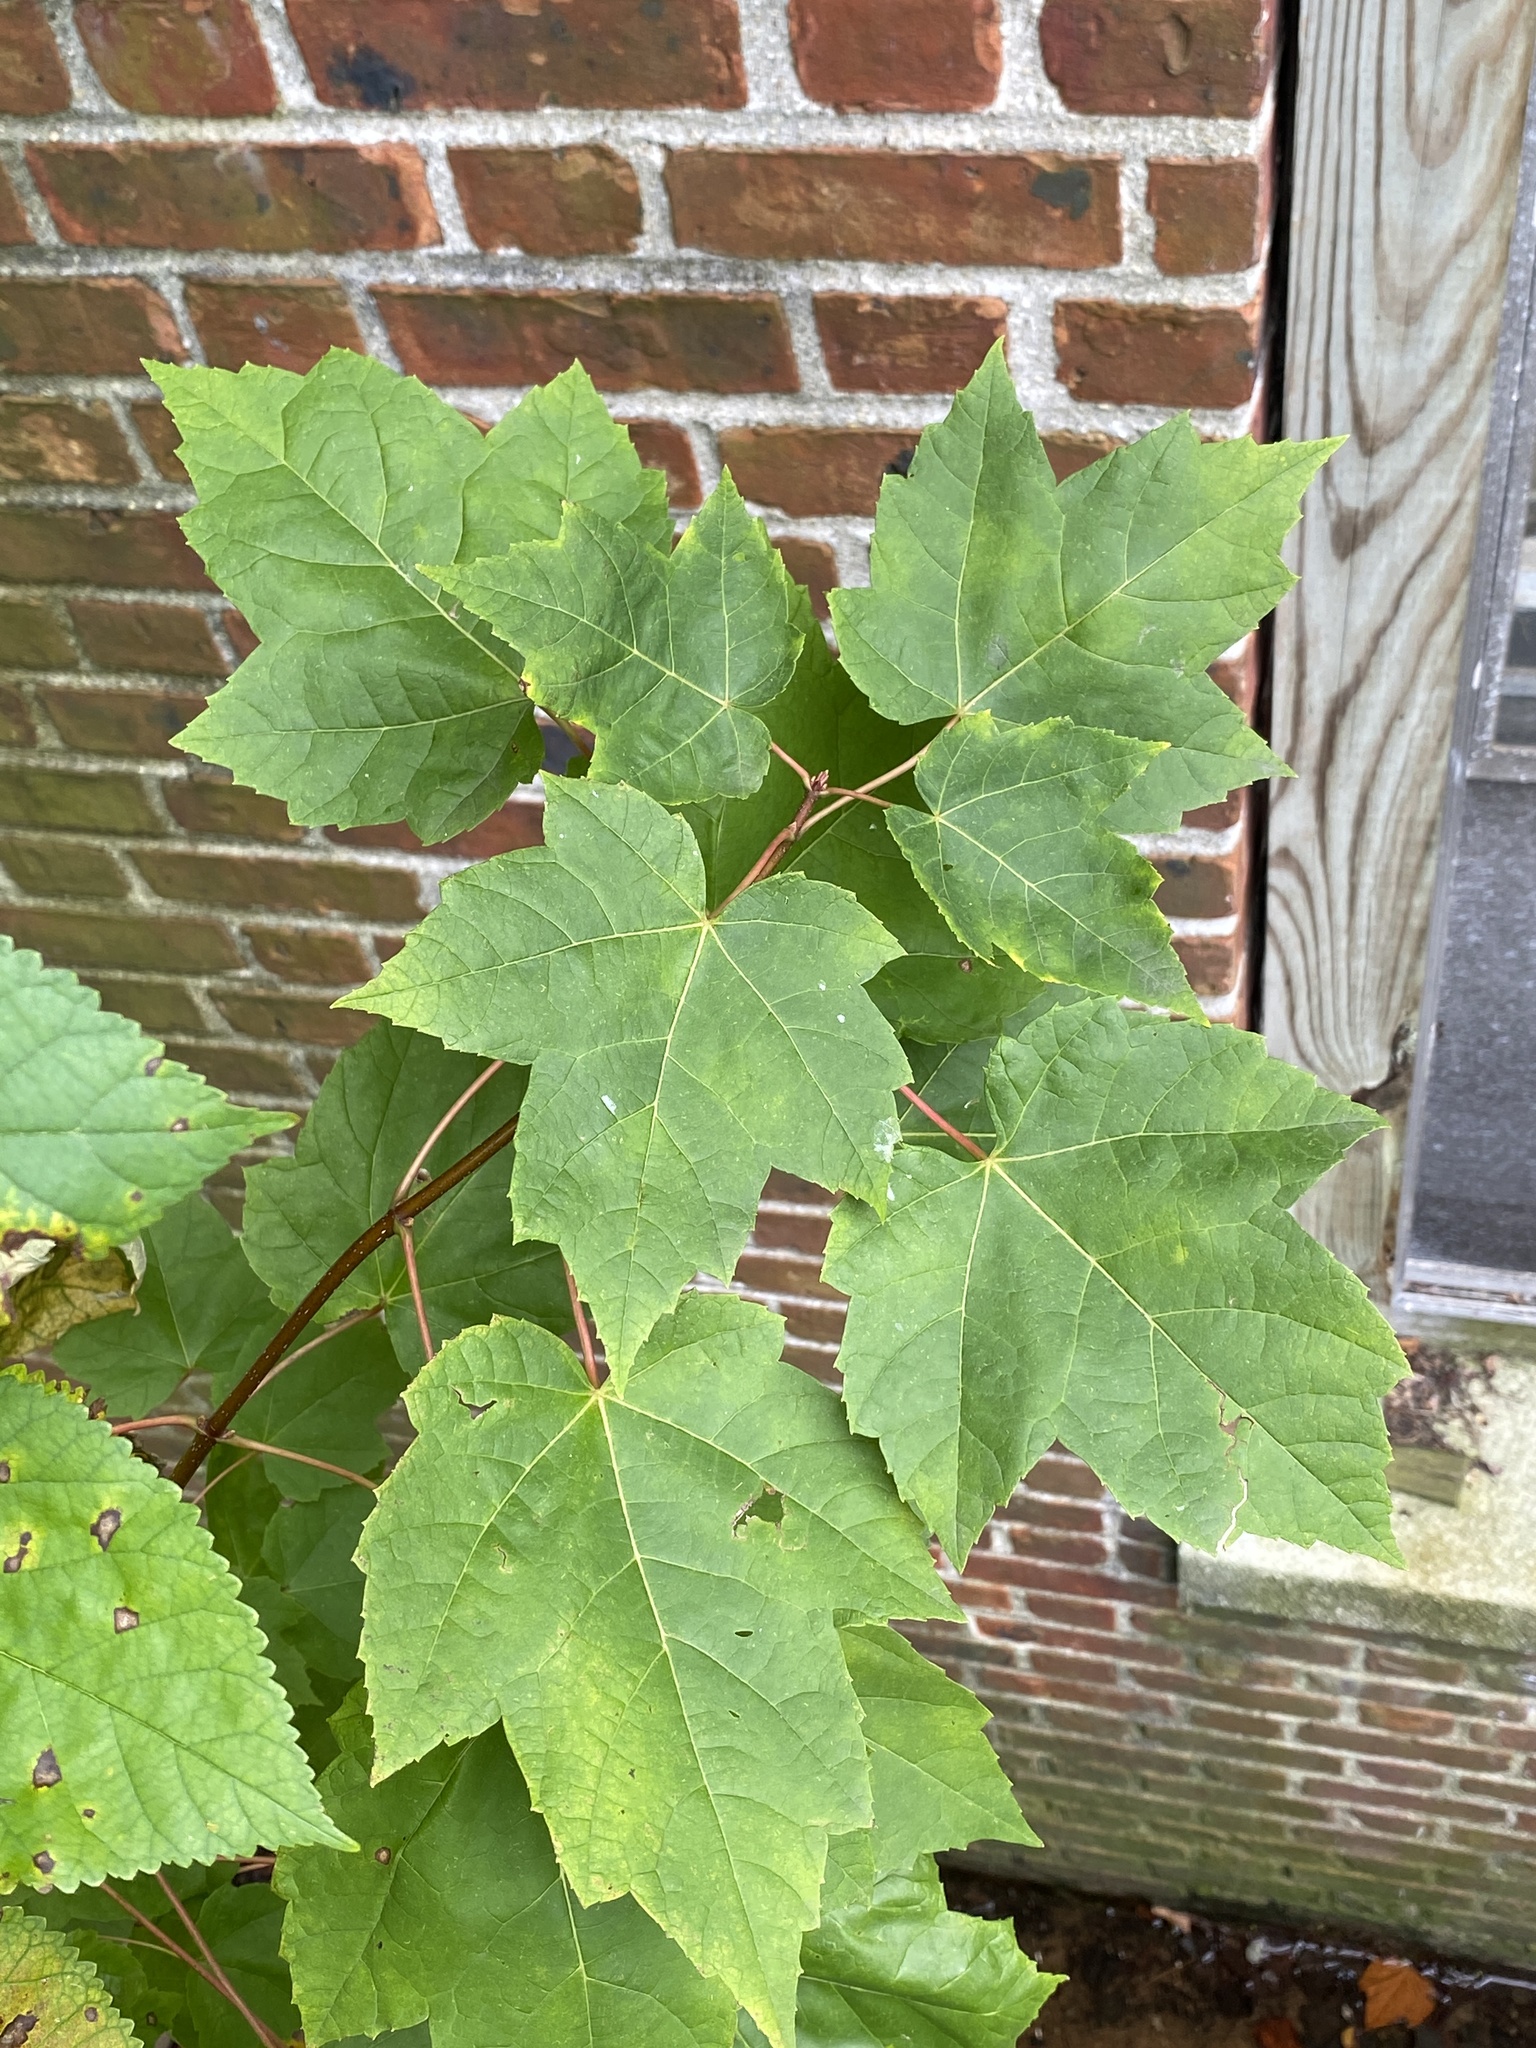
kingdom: Plantae
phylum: Tracheophyta
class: Magnoliopsida
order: Sapindales
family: Sapindaceae
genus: Acer
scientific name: Acer rubrum
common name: Red maple
